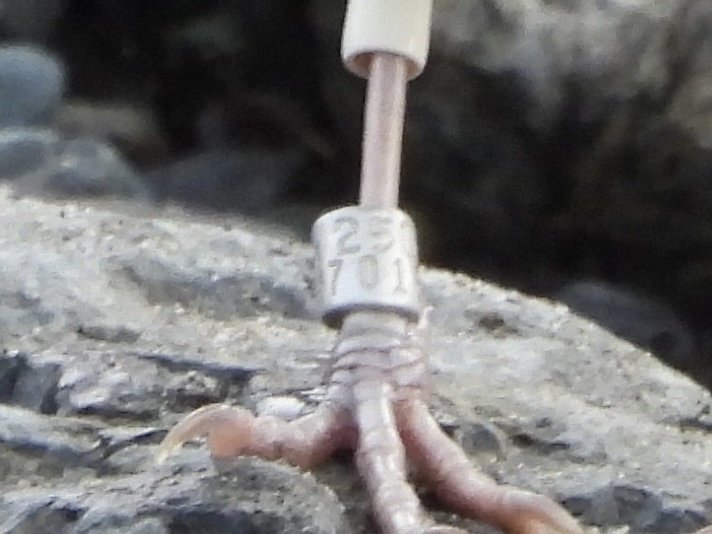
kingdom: Animalia
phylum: Chordata
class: Aves
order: Passeriformes
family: Cinclidae
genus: Cinclus
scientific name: Cinclus mexicanus
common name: American dipper
